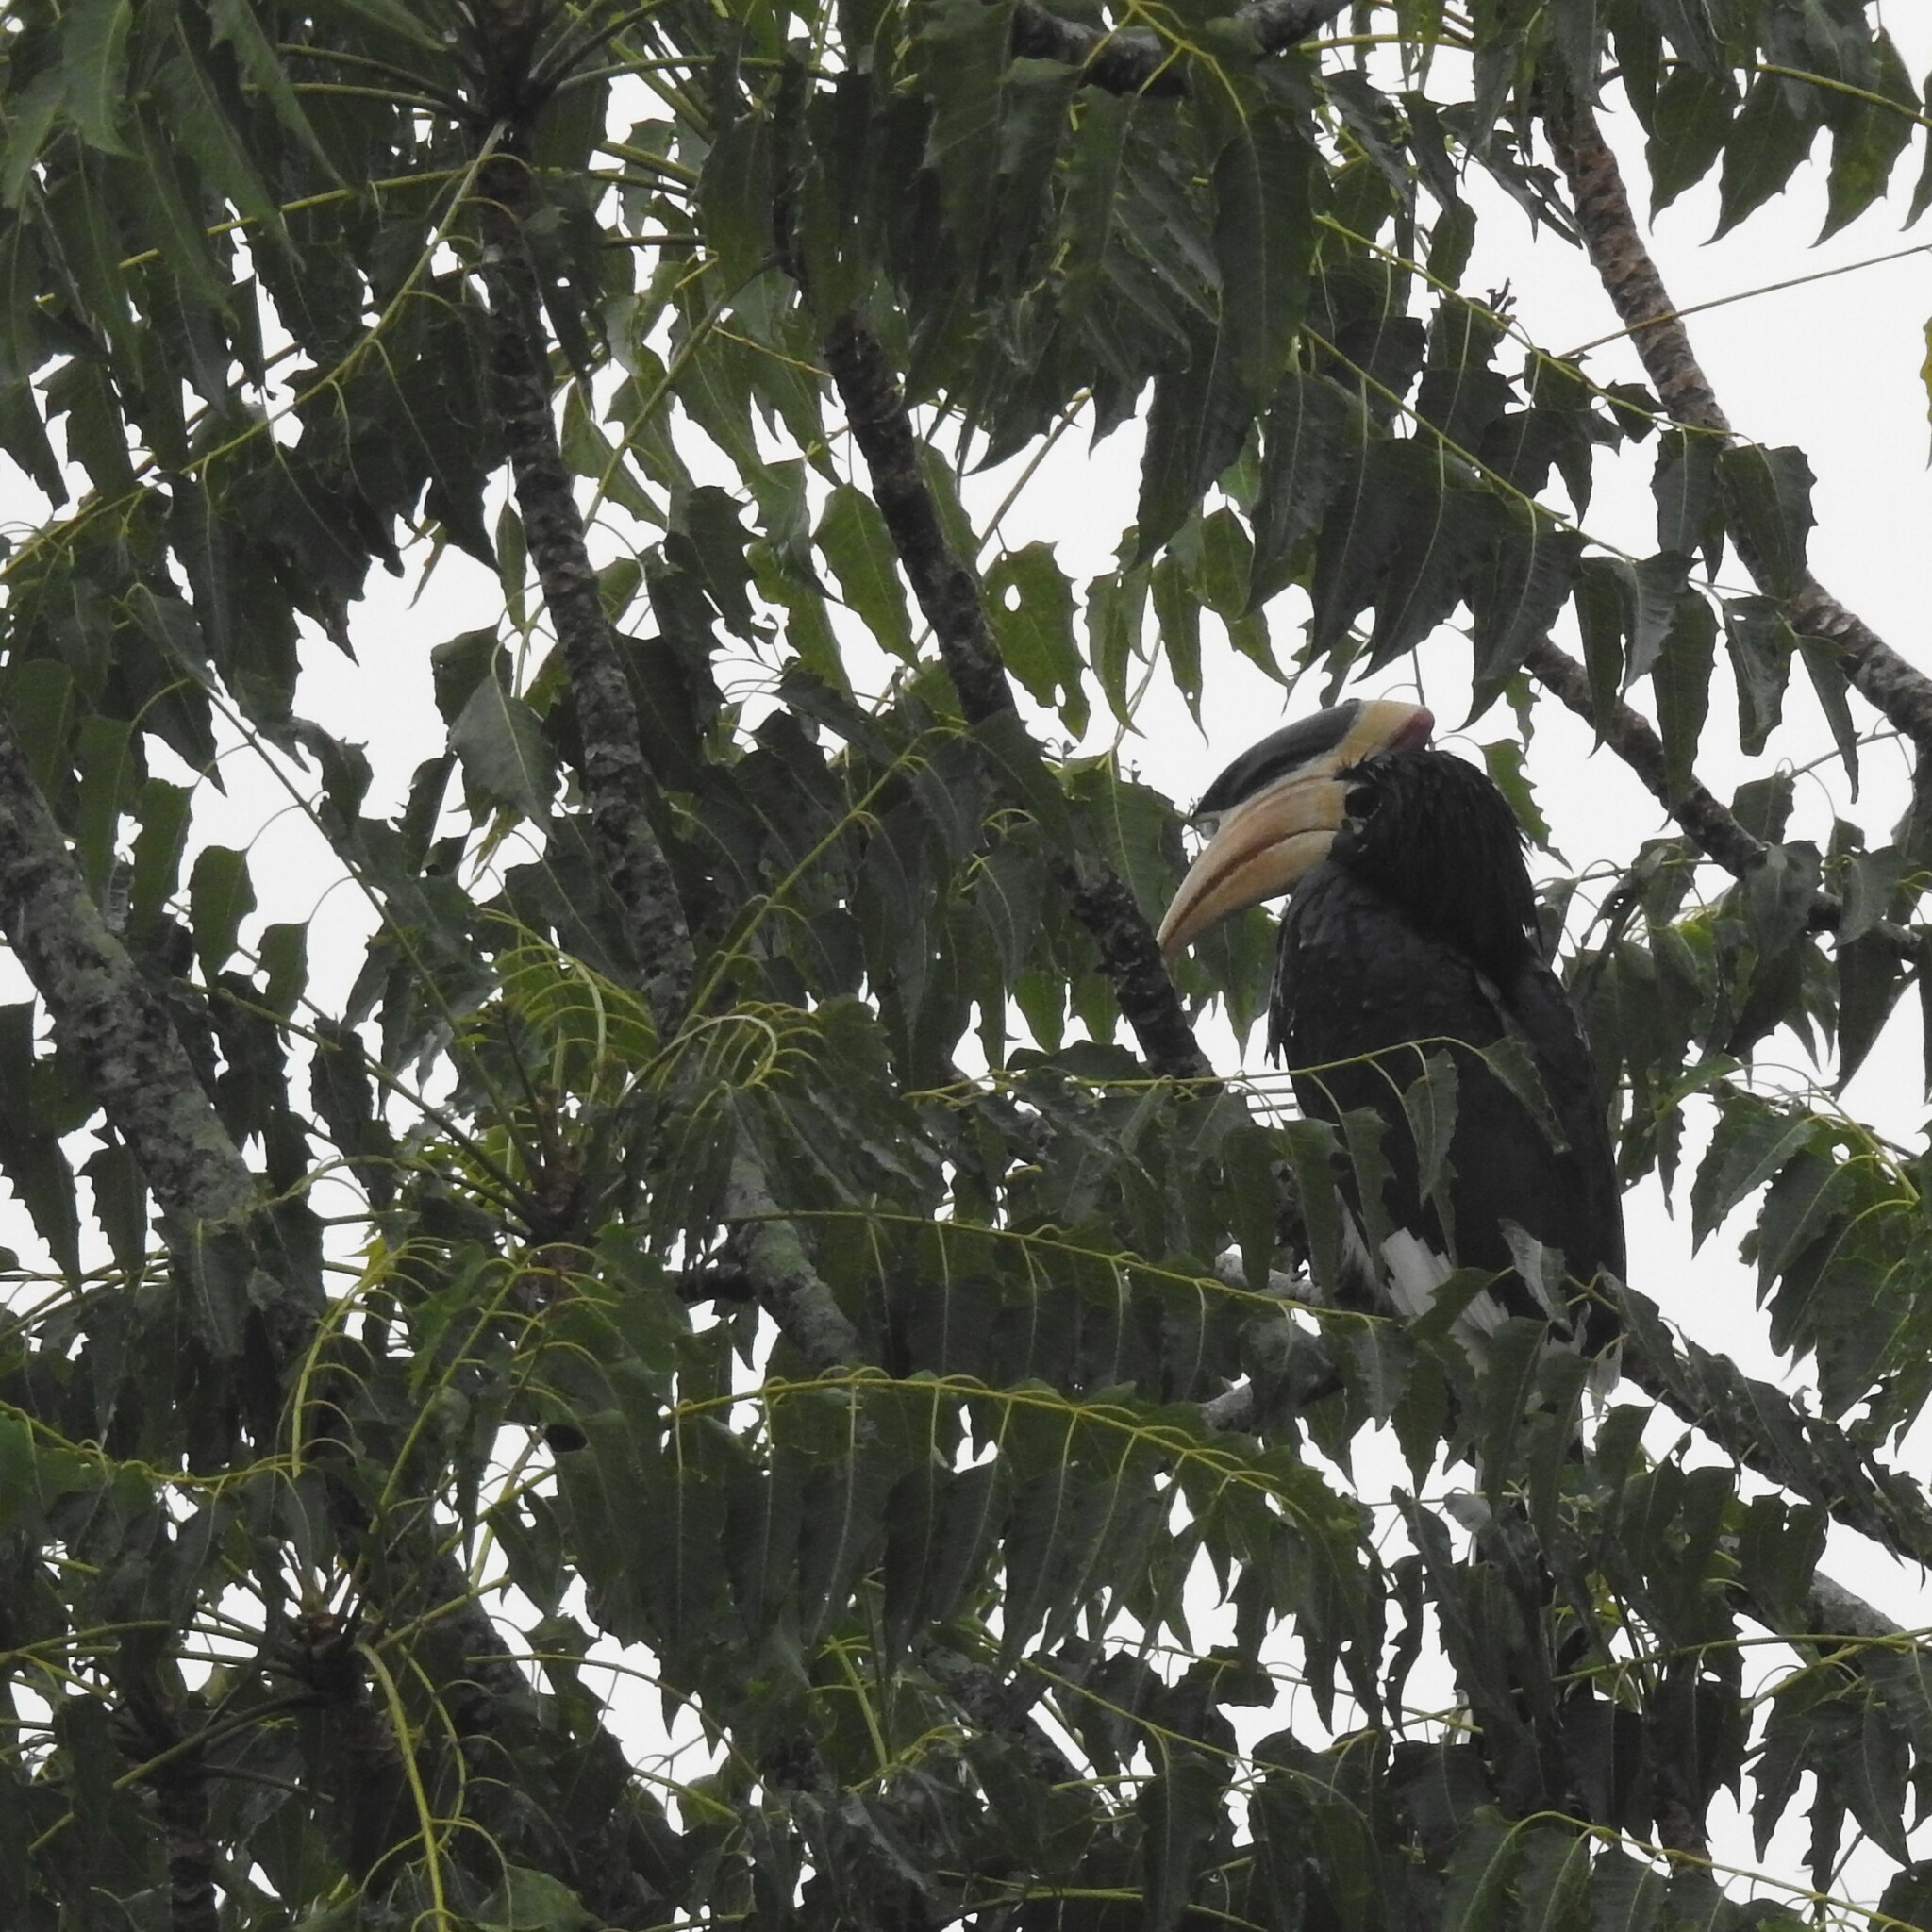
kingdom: Animalia
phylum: Chordata
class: Aves
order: Bucerotiformes
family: Bucerotidae
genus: Anthracoceros
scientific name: Anthracoceros coronatus
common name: Malabar pied hornbill
